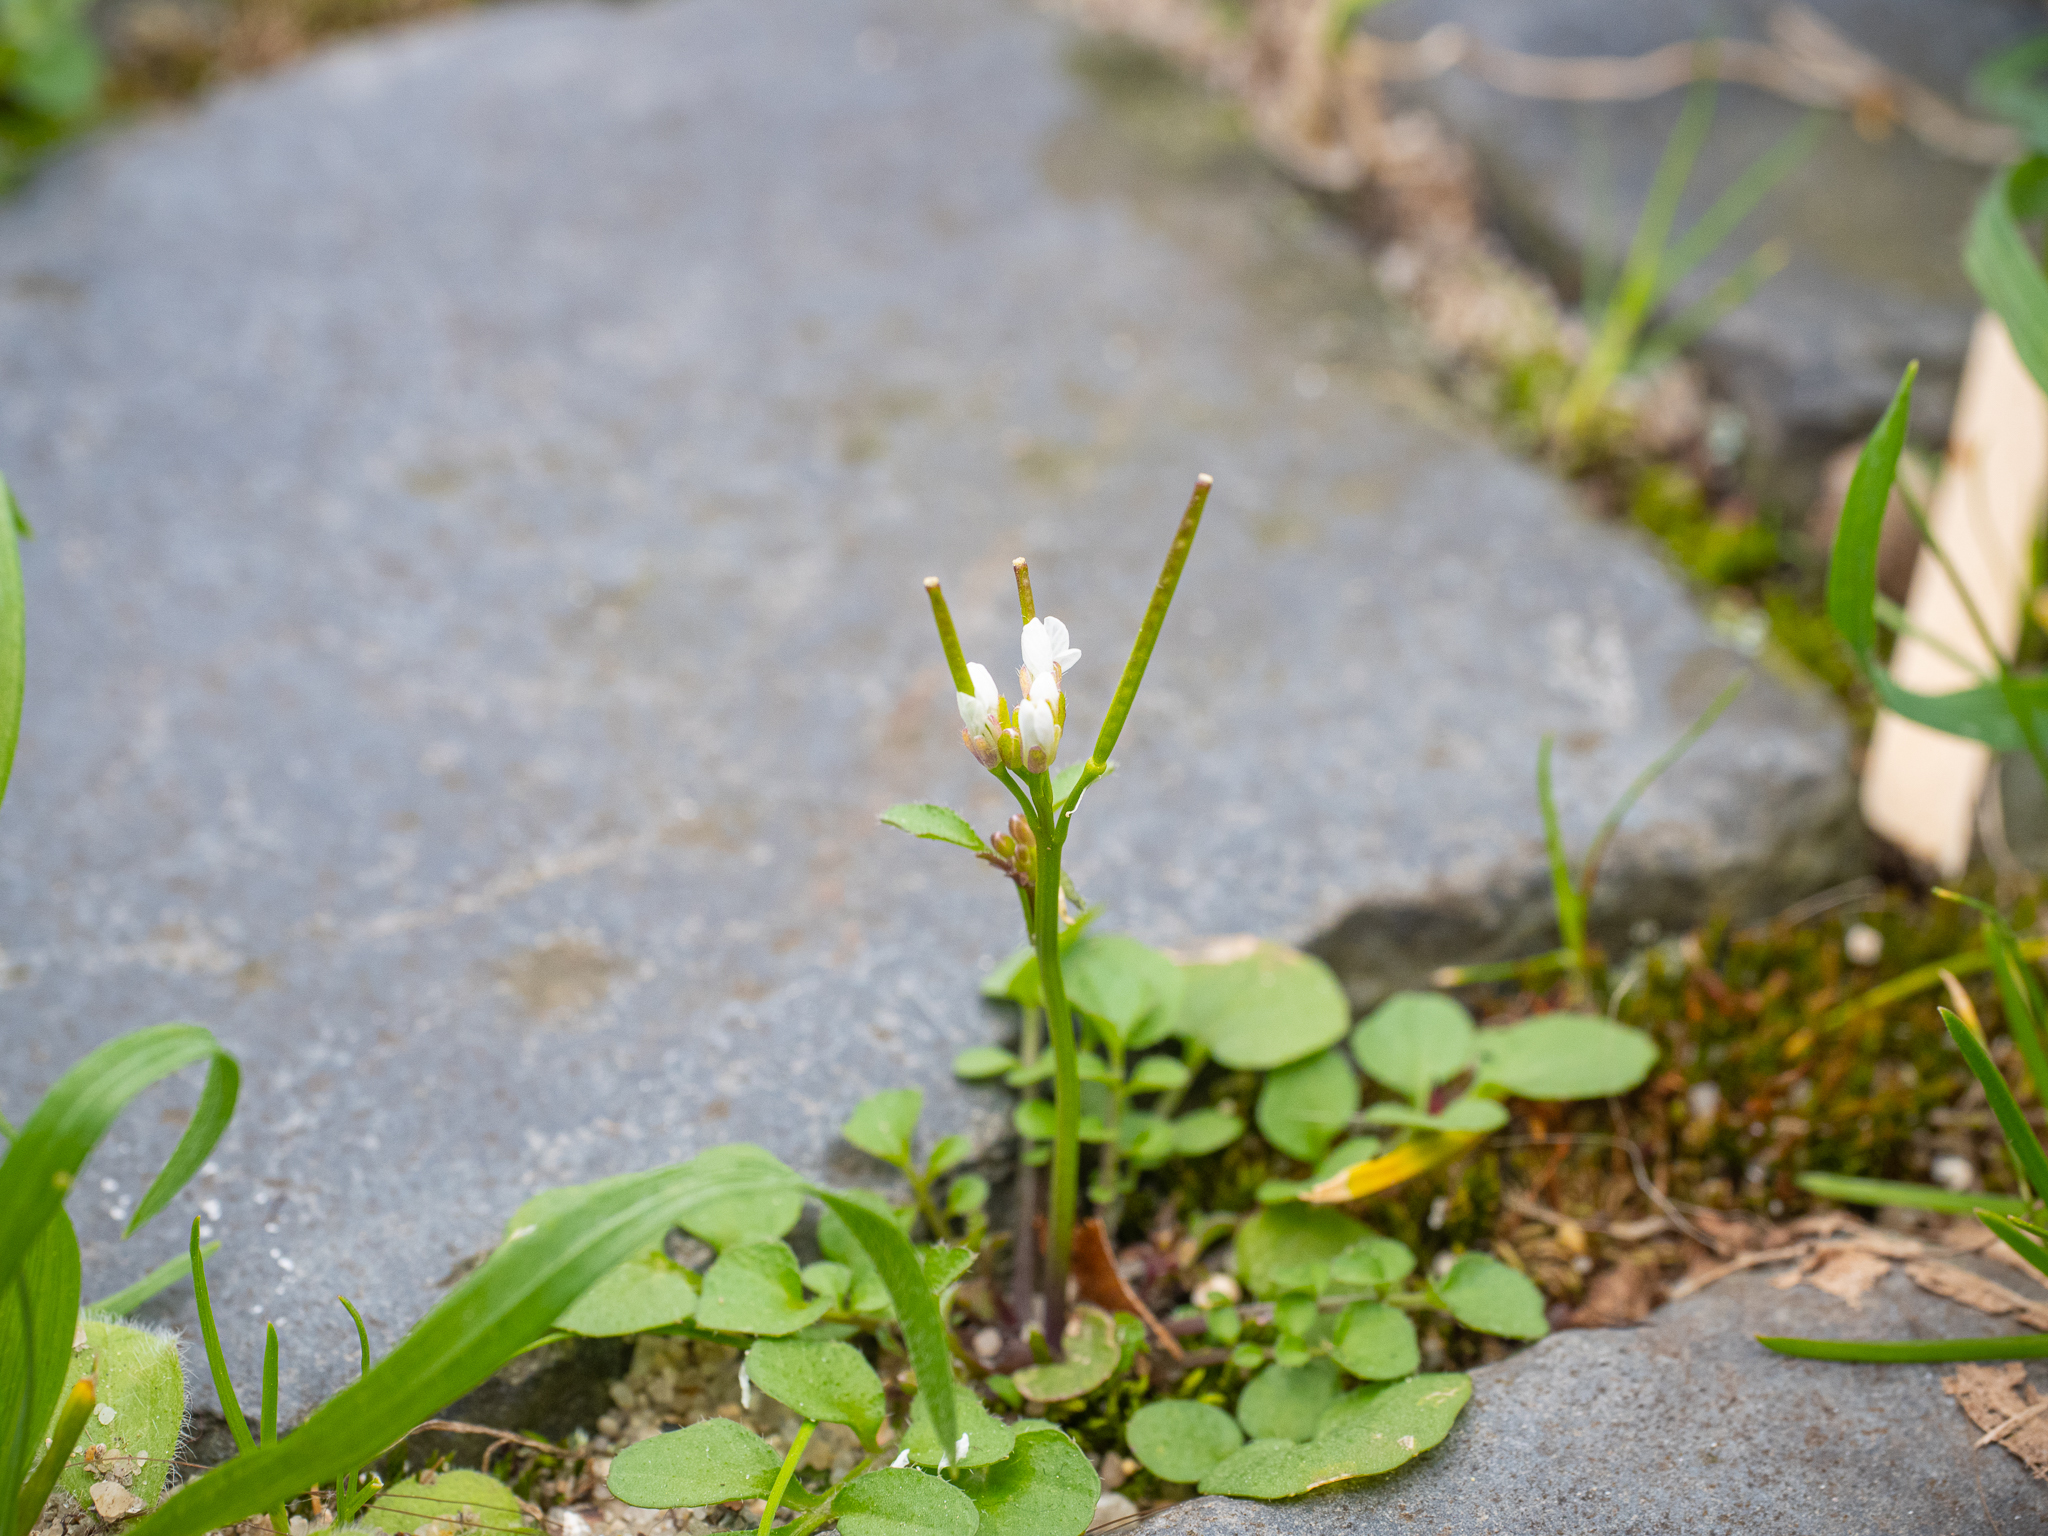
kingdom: Plantae
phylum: Tracheophyta
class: Magnoliopsida
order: Brassicales
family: Brassicaceae
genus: Cardamine
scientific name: Cardamine hirsuta
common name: Hairy bittercress
